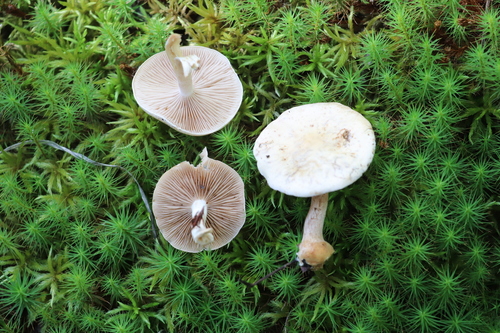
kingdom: Fungi
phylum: Basidiomycota
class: Agaricomycetes
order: Agaricales
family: Hymenogastraceae
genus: Hebeloma
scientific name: Hebeloma
